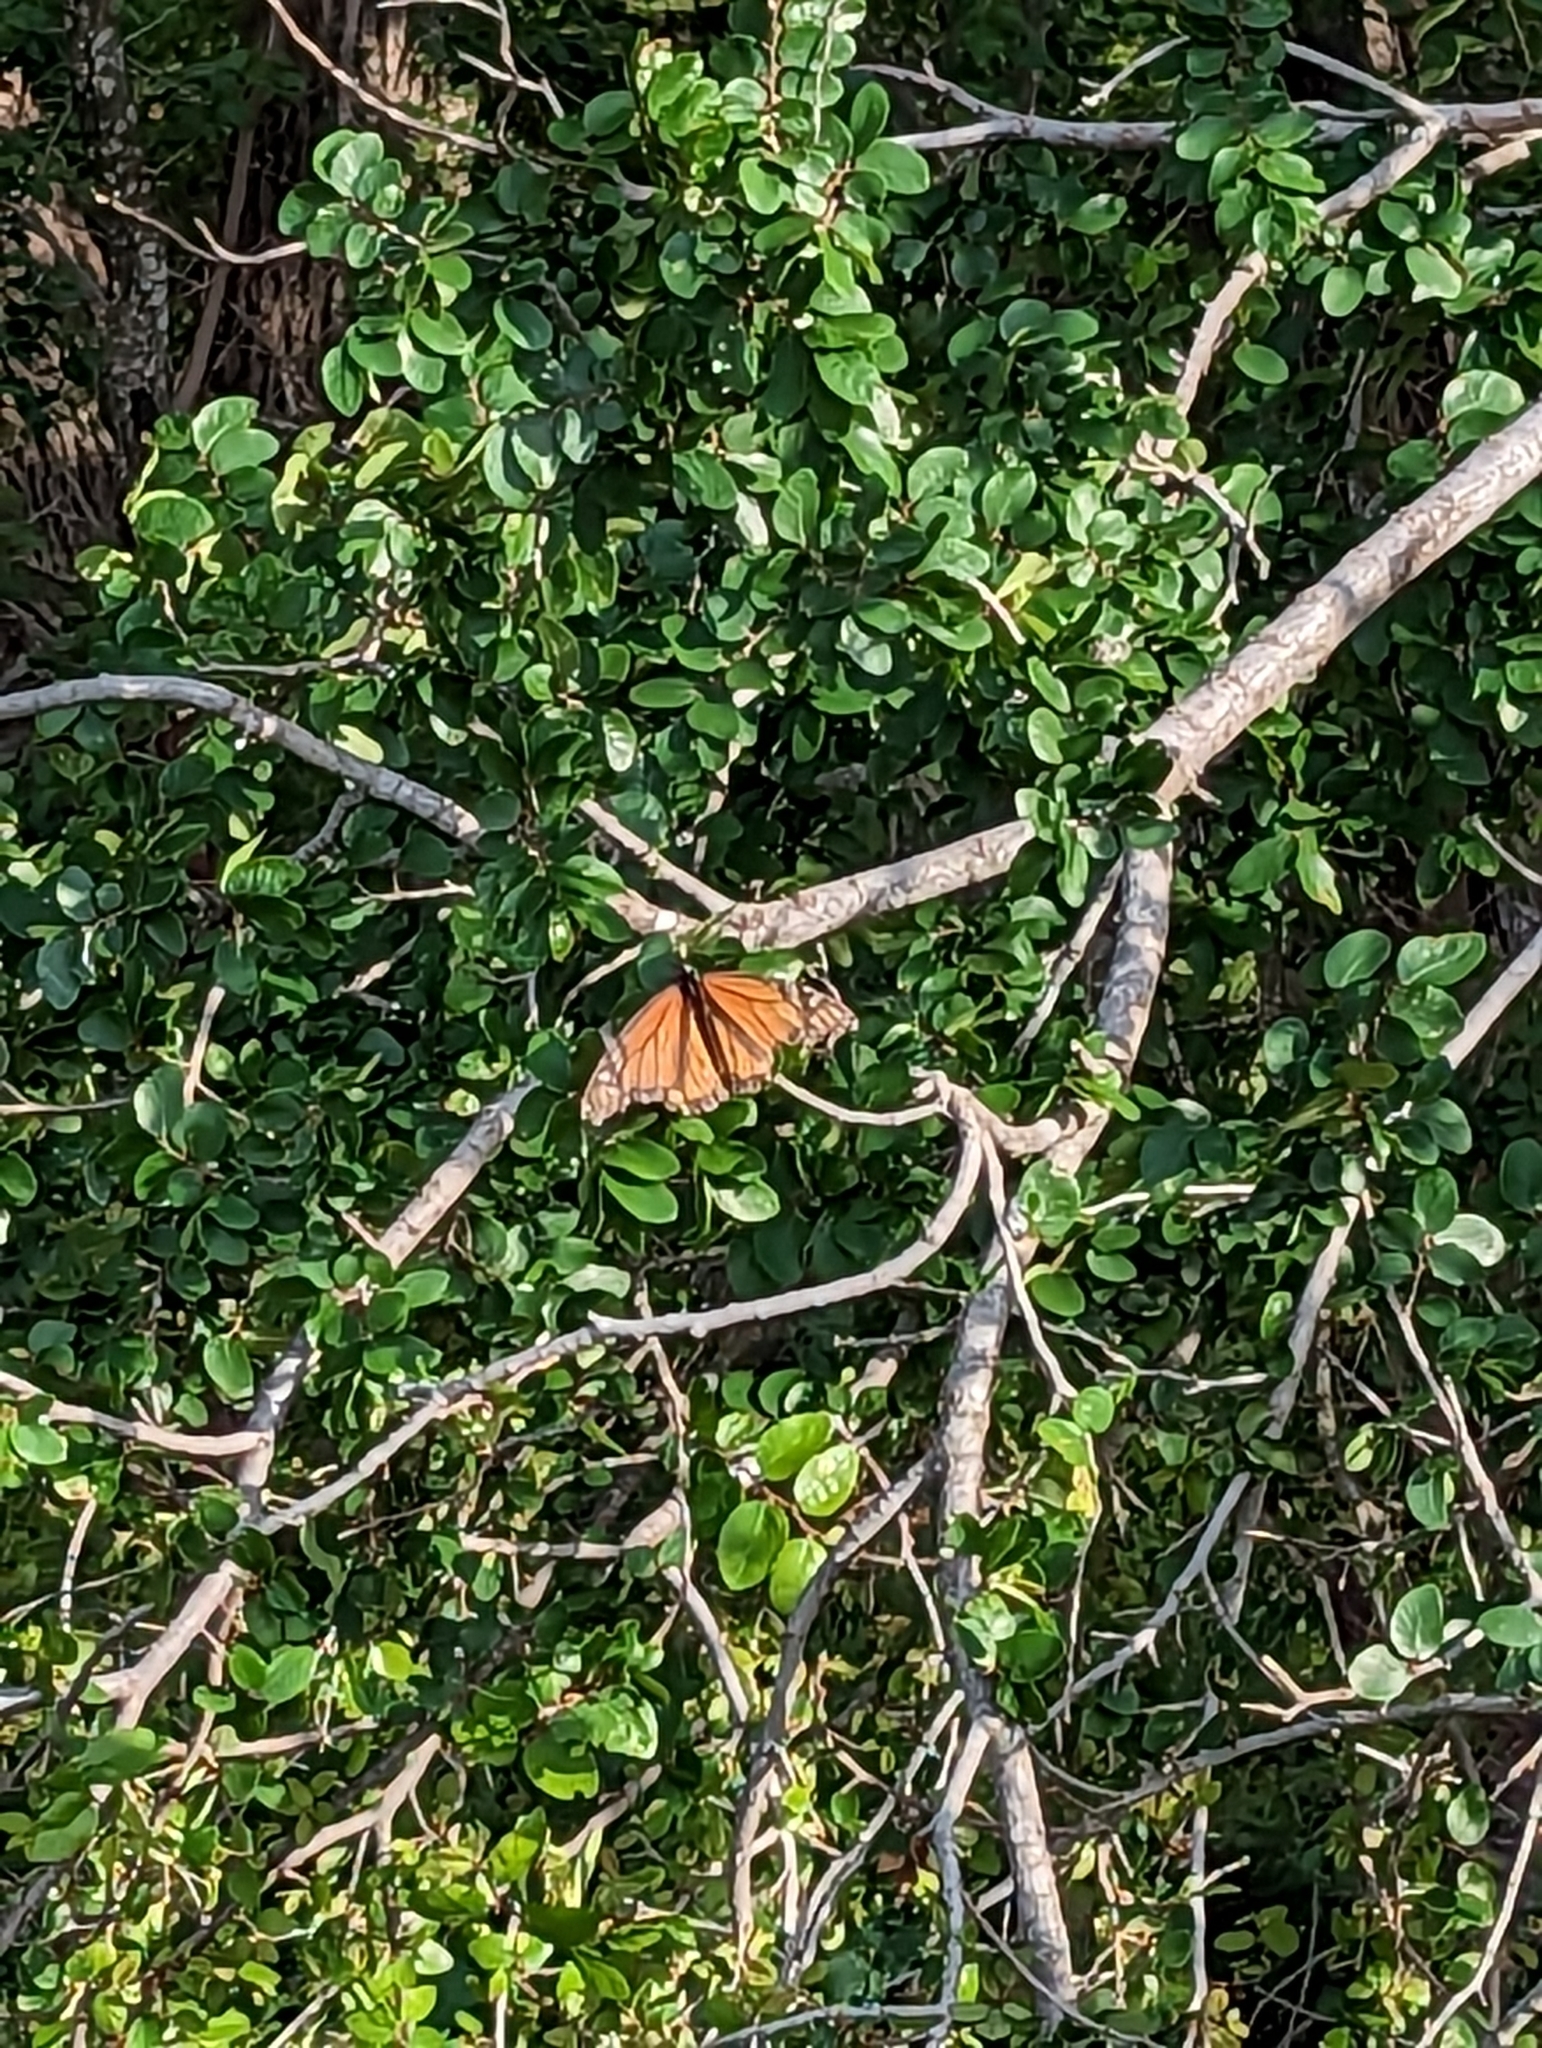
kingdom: Animalia
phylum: Arthropoda
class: Insecta
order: Lepidoptera
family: Nymphalidae
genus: Danaus
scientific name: Danaus plexippus
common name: Monarch
